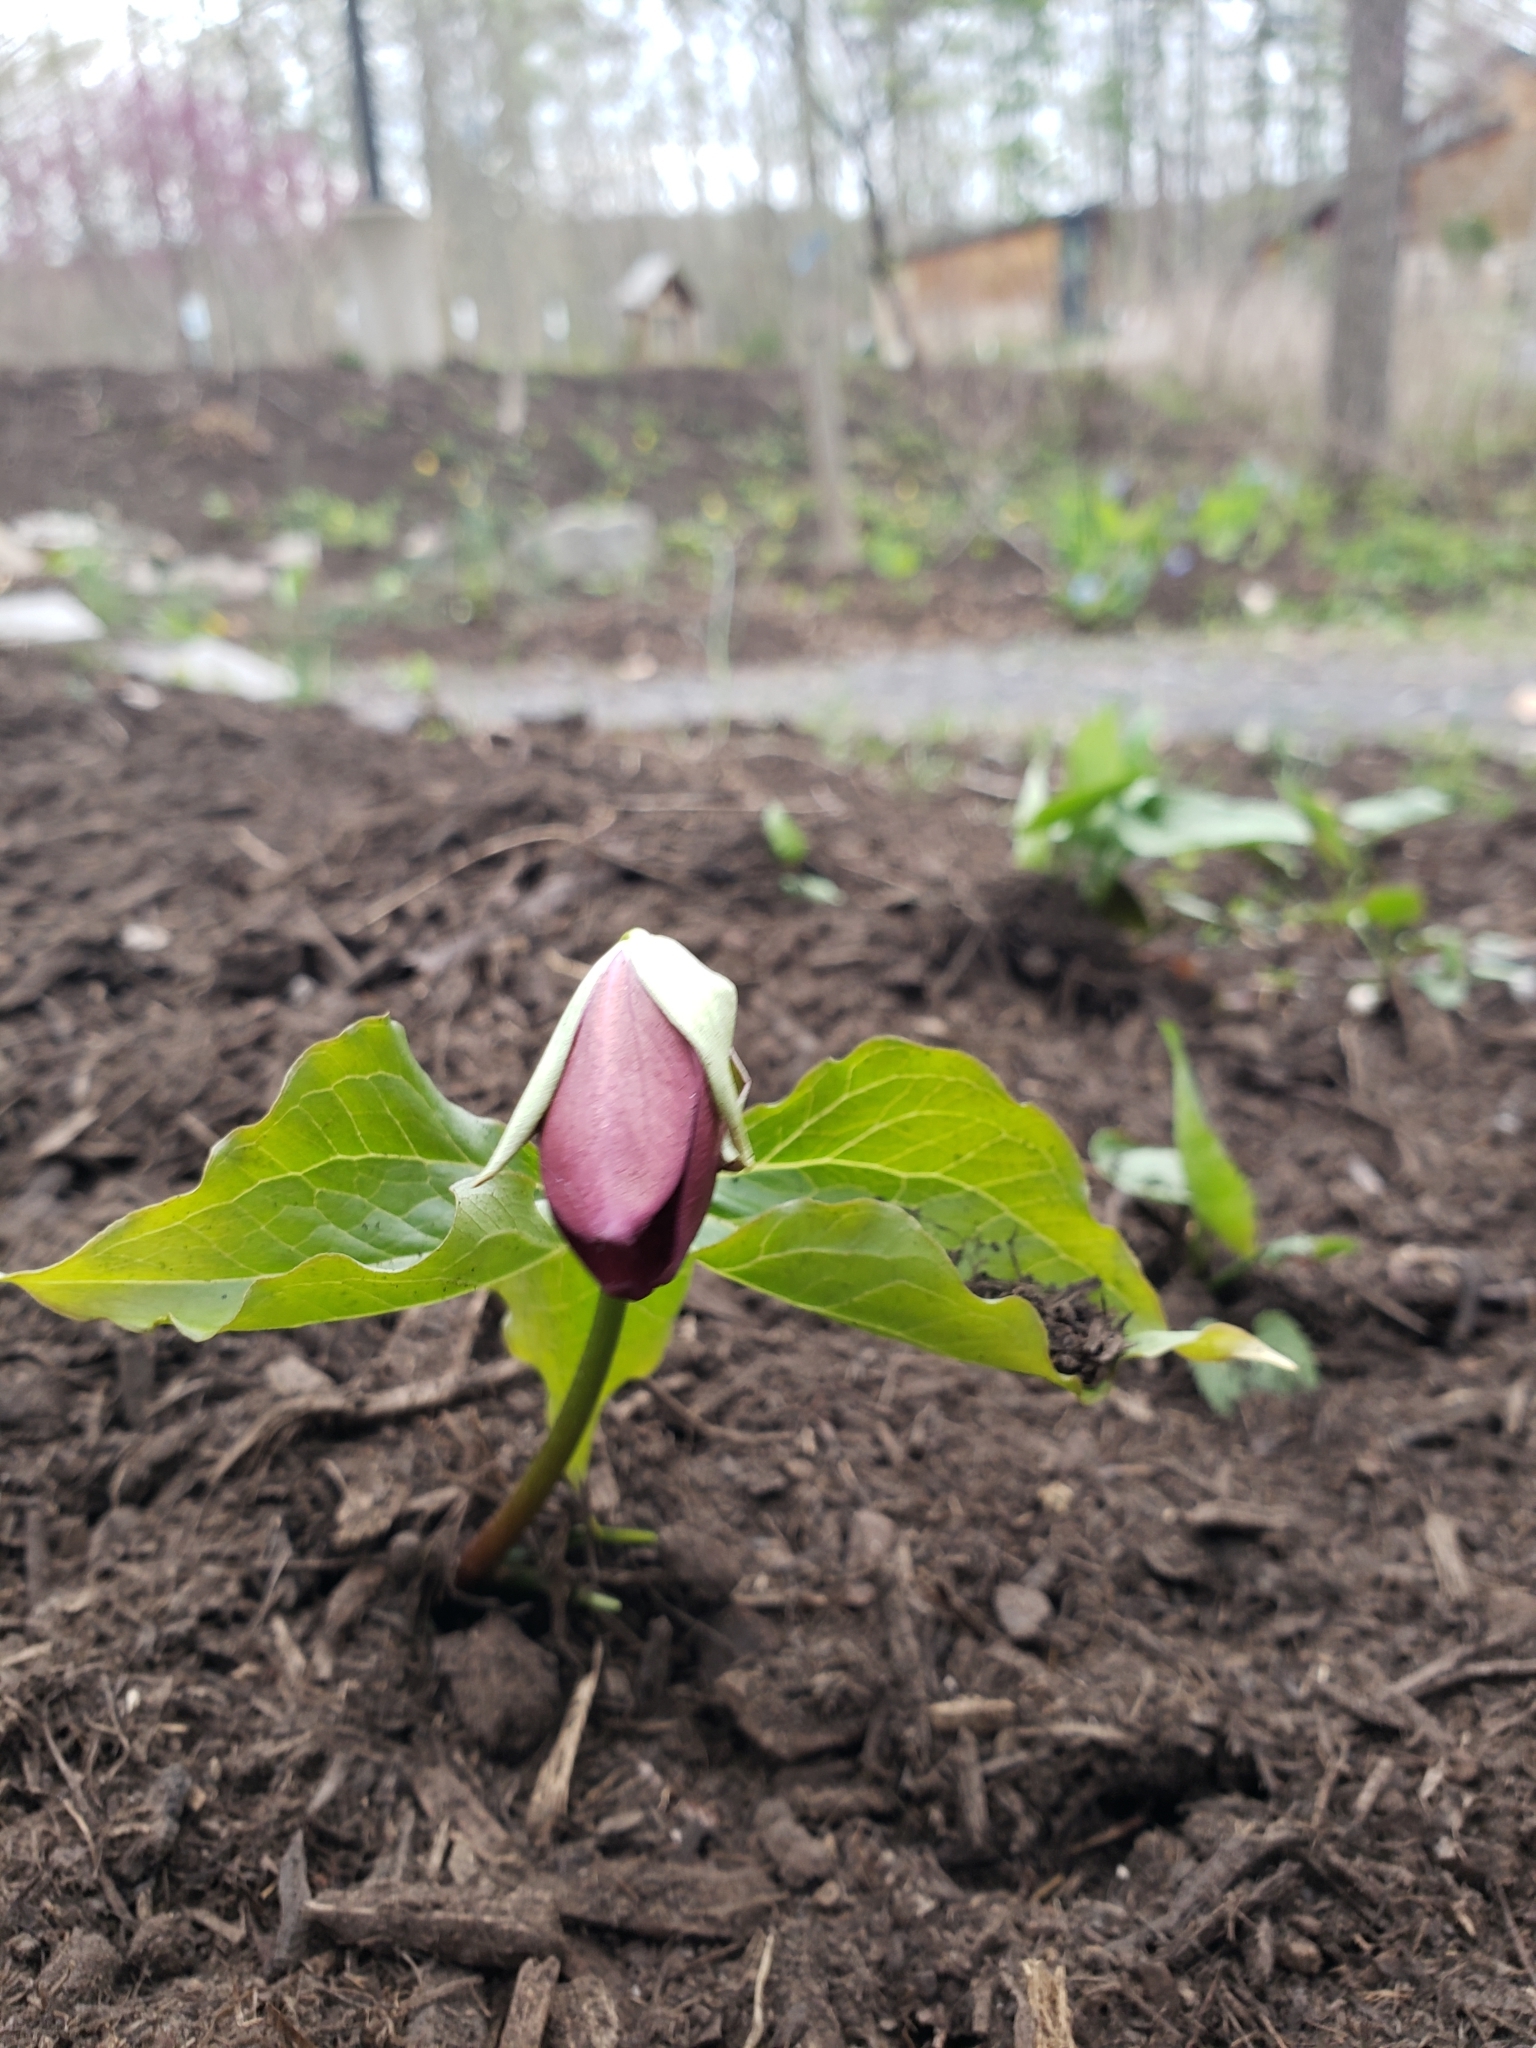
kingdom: Plantae
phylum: Tracheophyta
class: Liliopsida
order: Liliales
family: Melanthiaceae
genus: Trillium
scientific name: Trillium erectum
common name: Purple trillium
